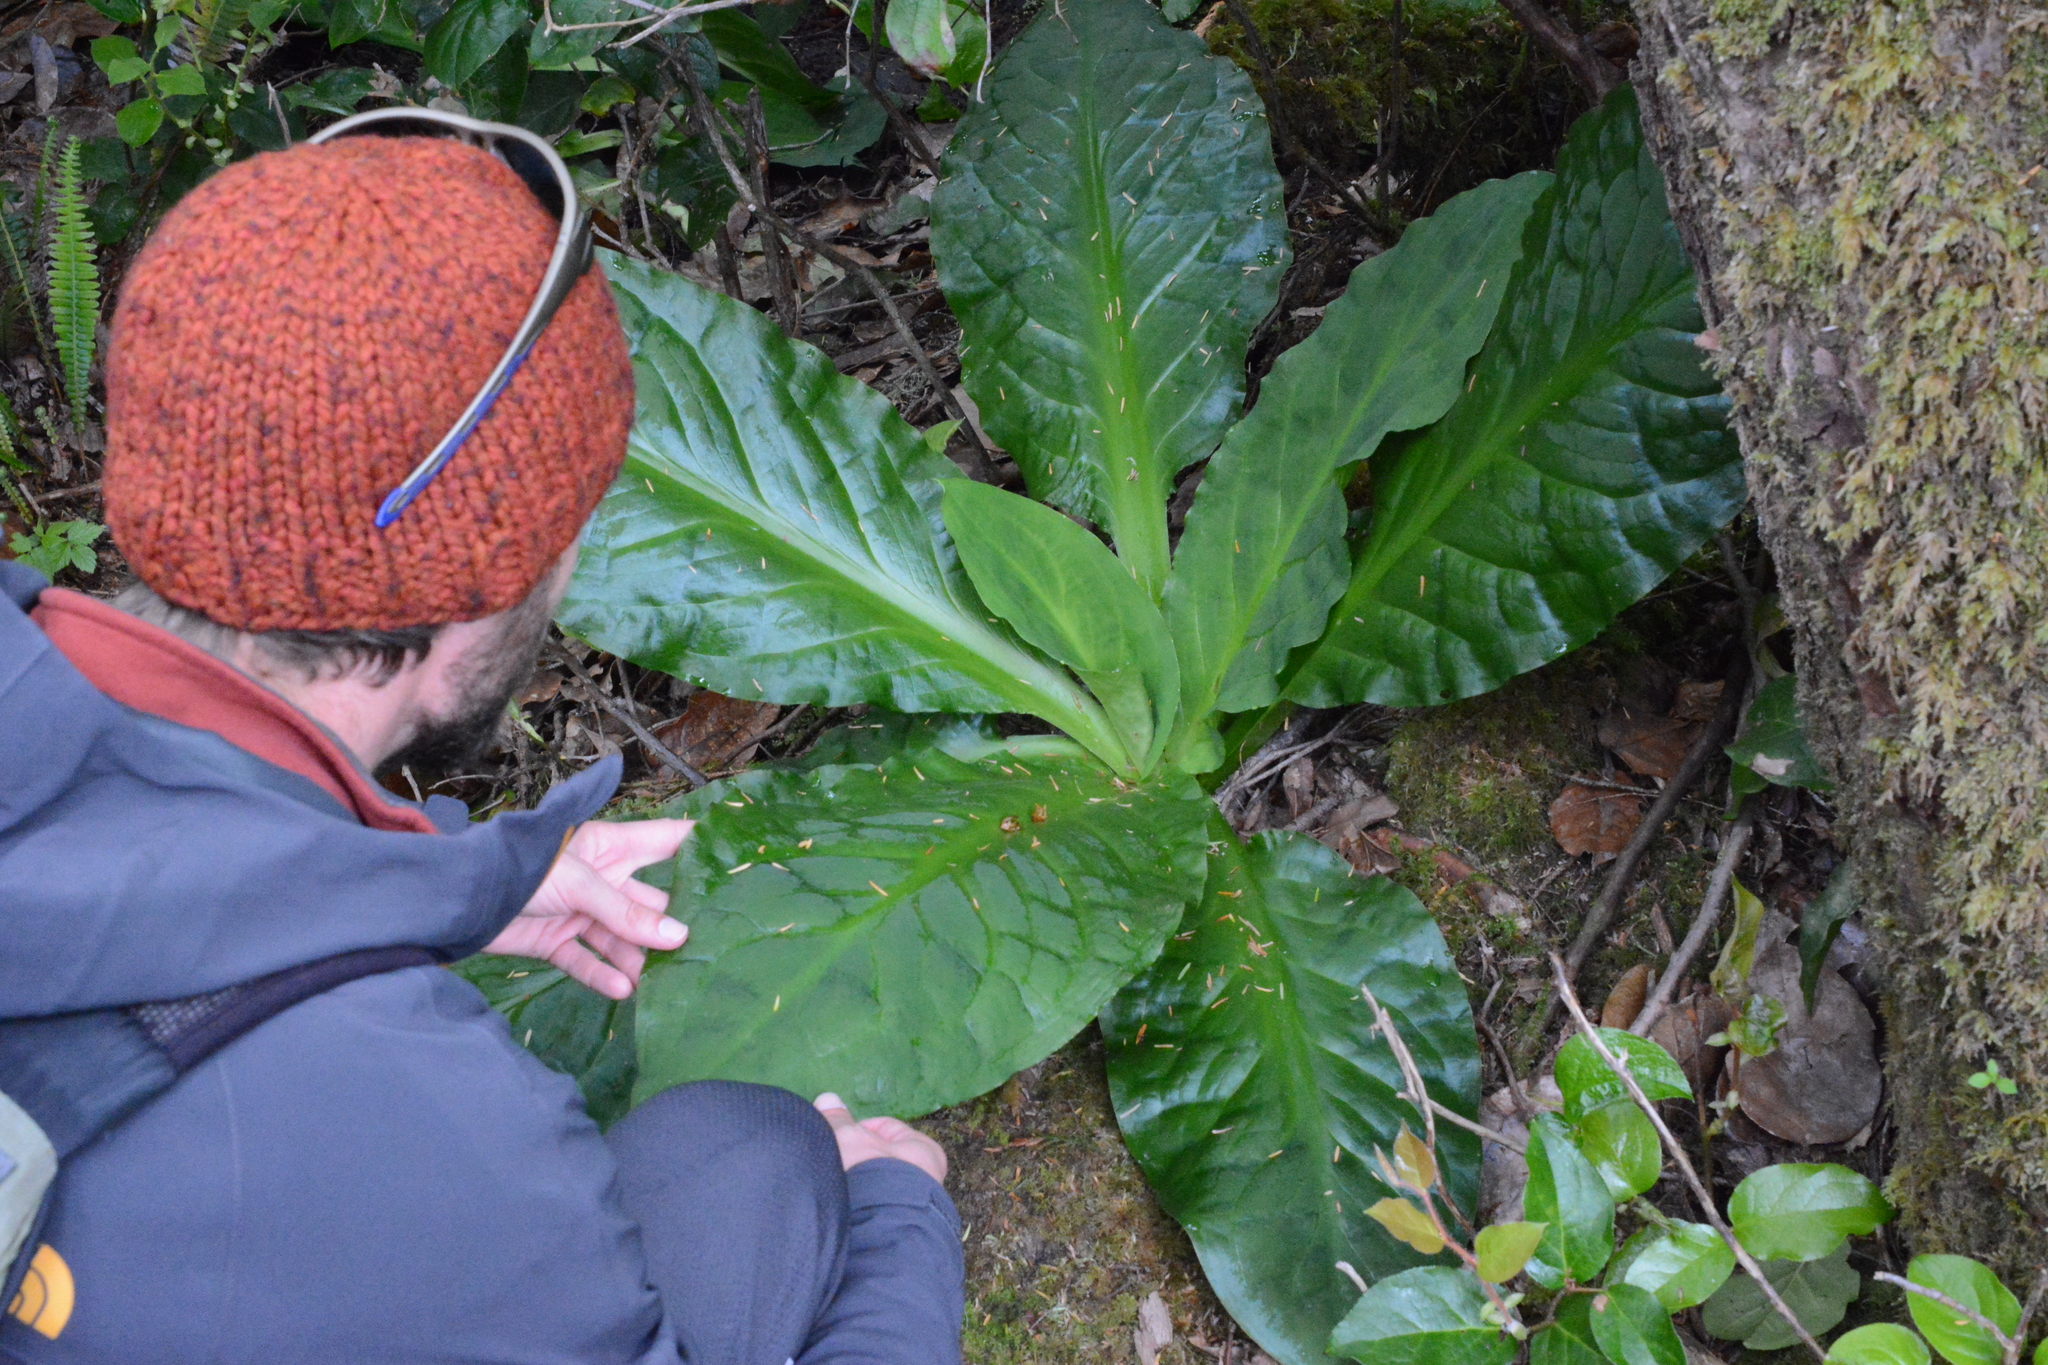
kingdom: Plantae
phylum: Tracheophyta
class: Liliopsida
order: Alismatales
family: Araceae
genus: Lysichiton
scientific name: Lysichiton americanus
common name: American skunk cabbage
